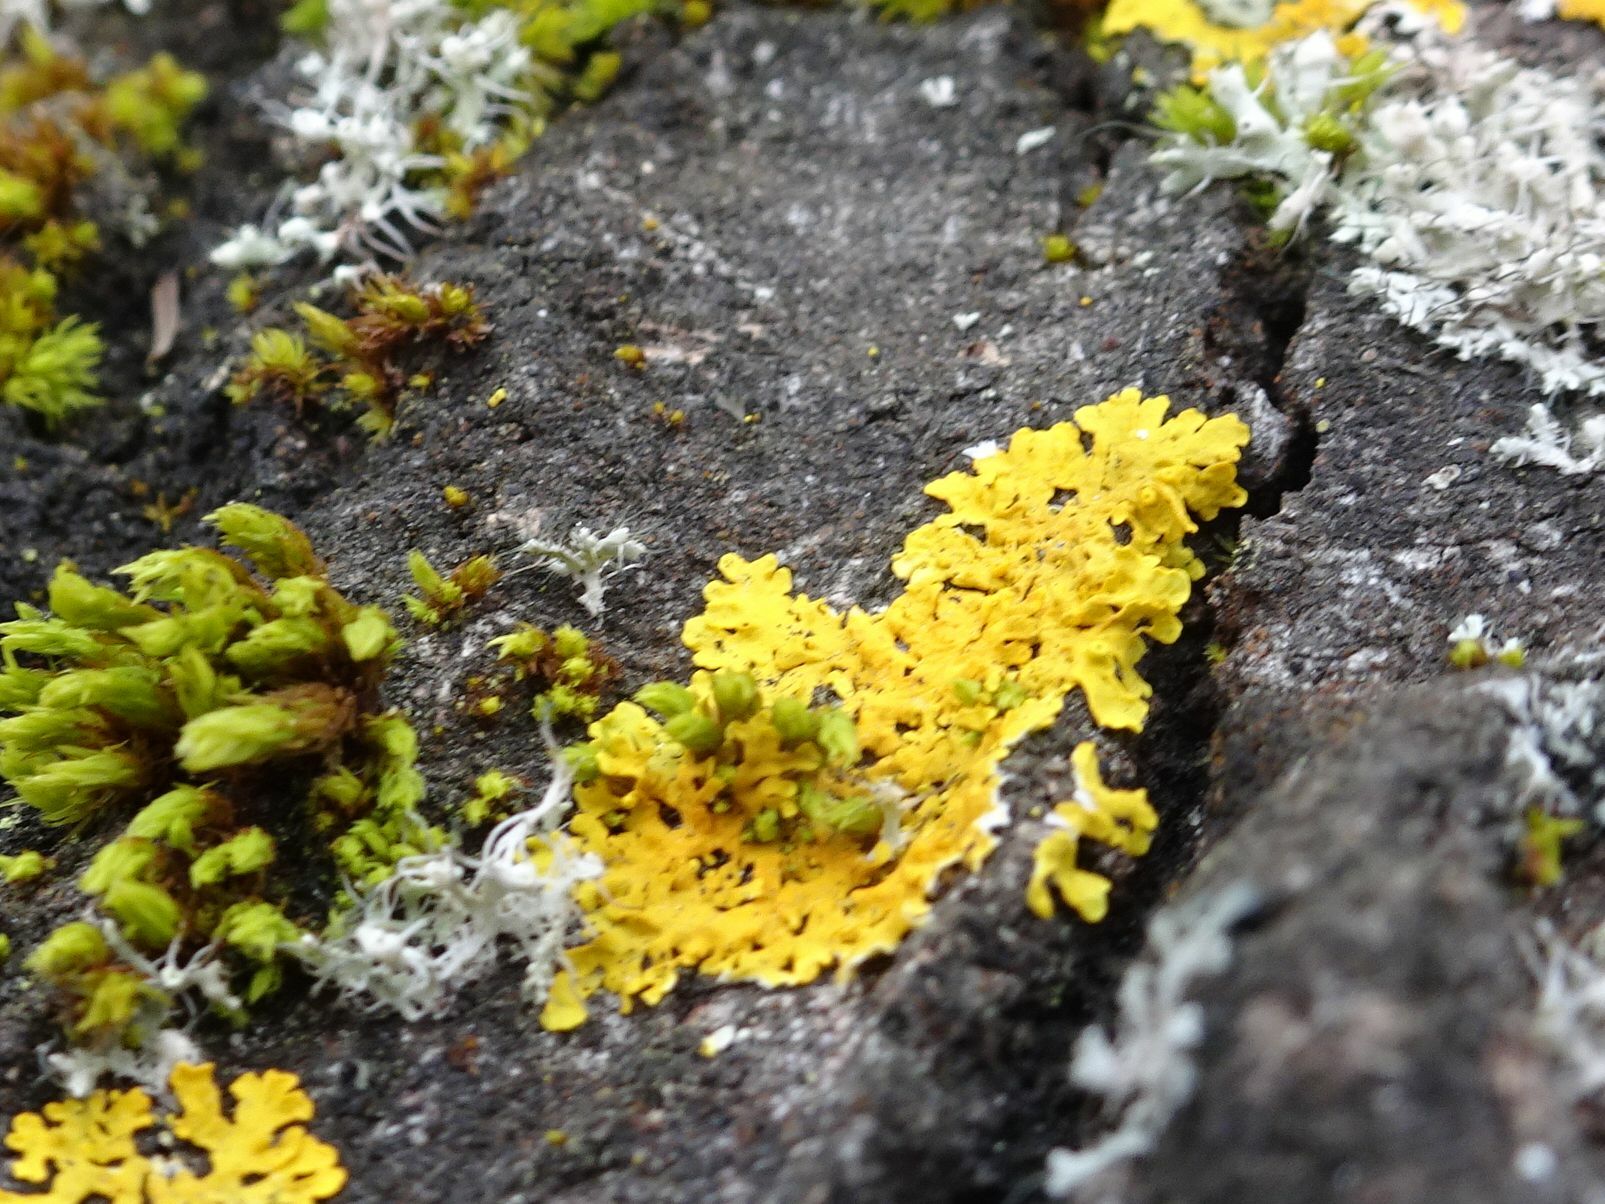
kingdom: Fungi
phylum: Ascomycota
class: Lecanoromycetes
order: Teloschistales
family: Teloschistaceae
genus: Xanthoria
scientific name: Xanthoria parietina
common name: Common orange lichen
